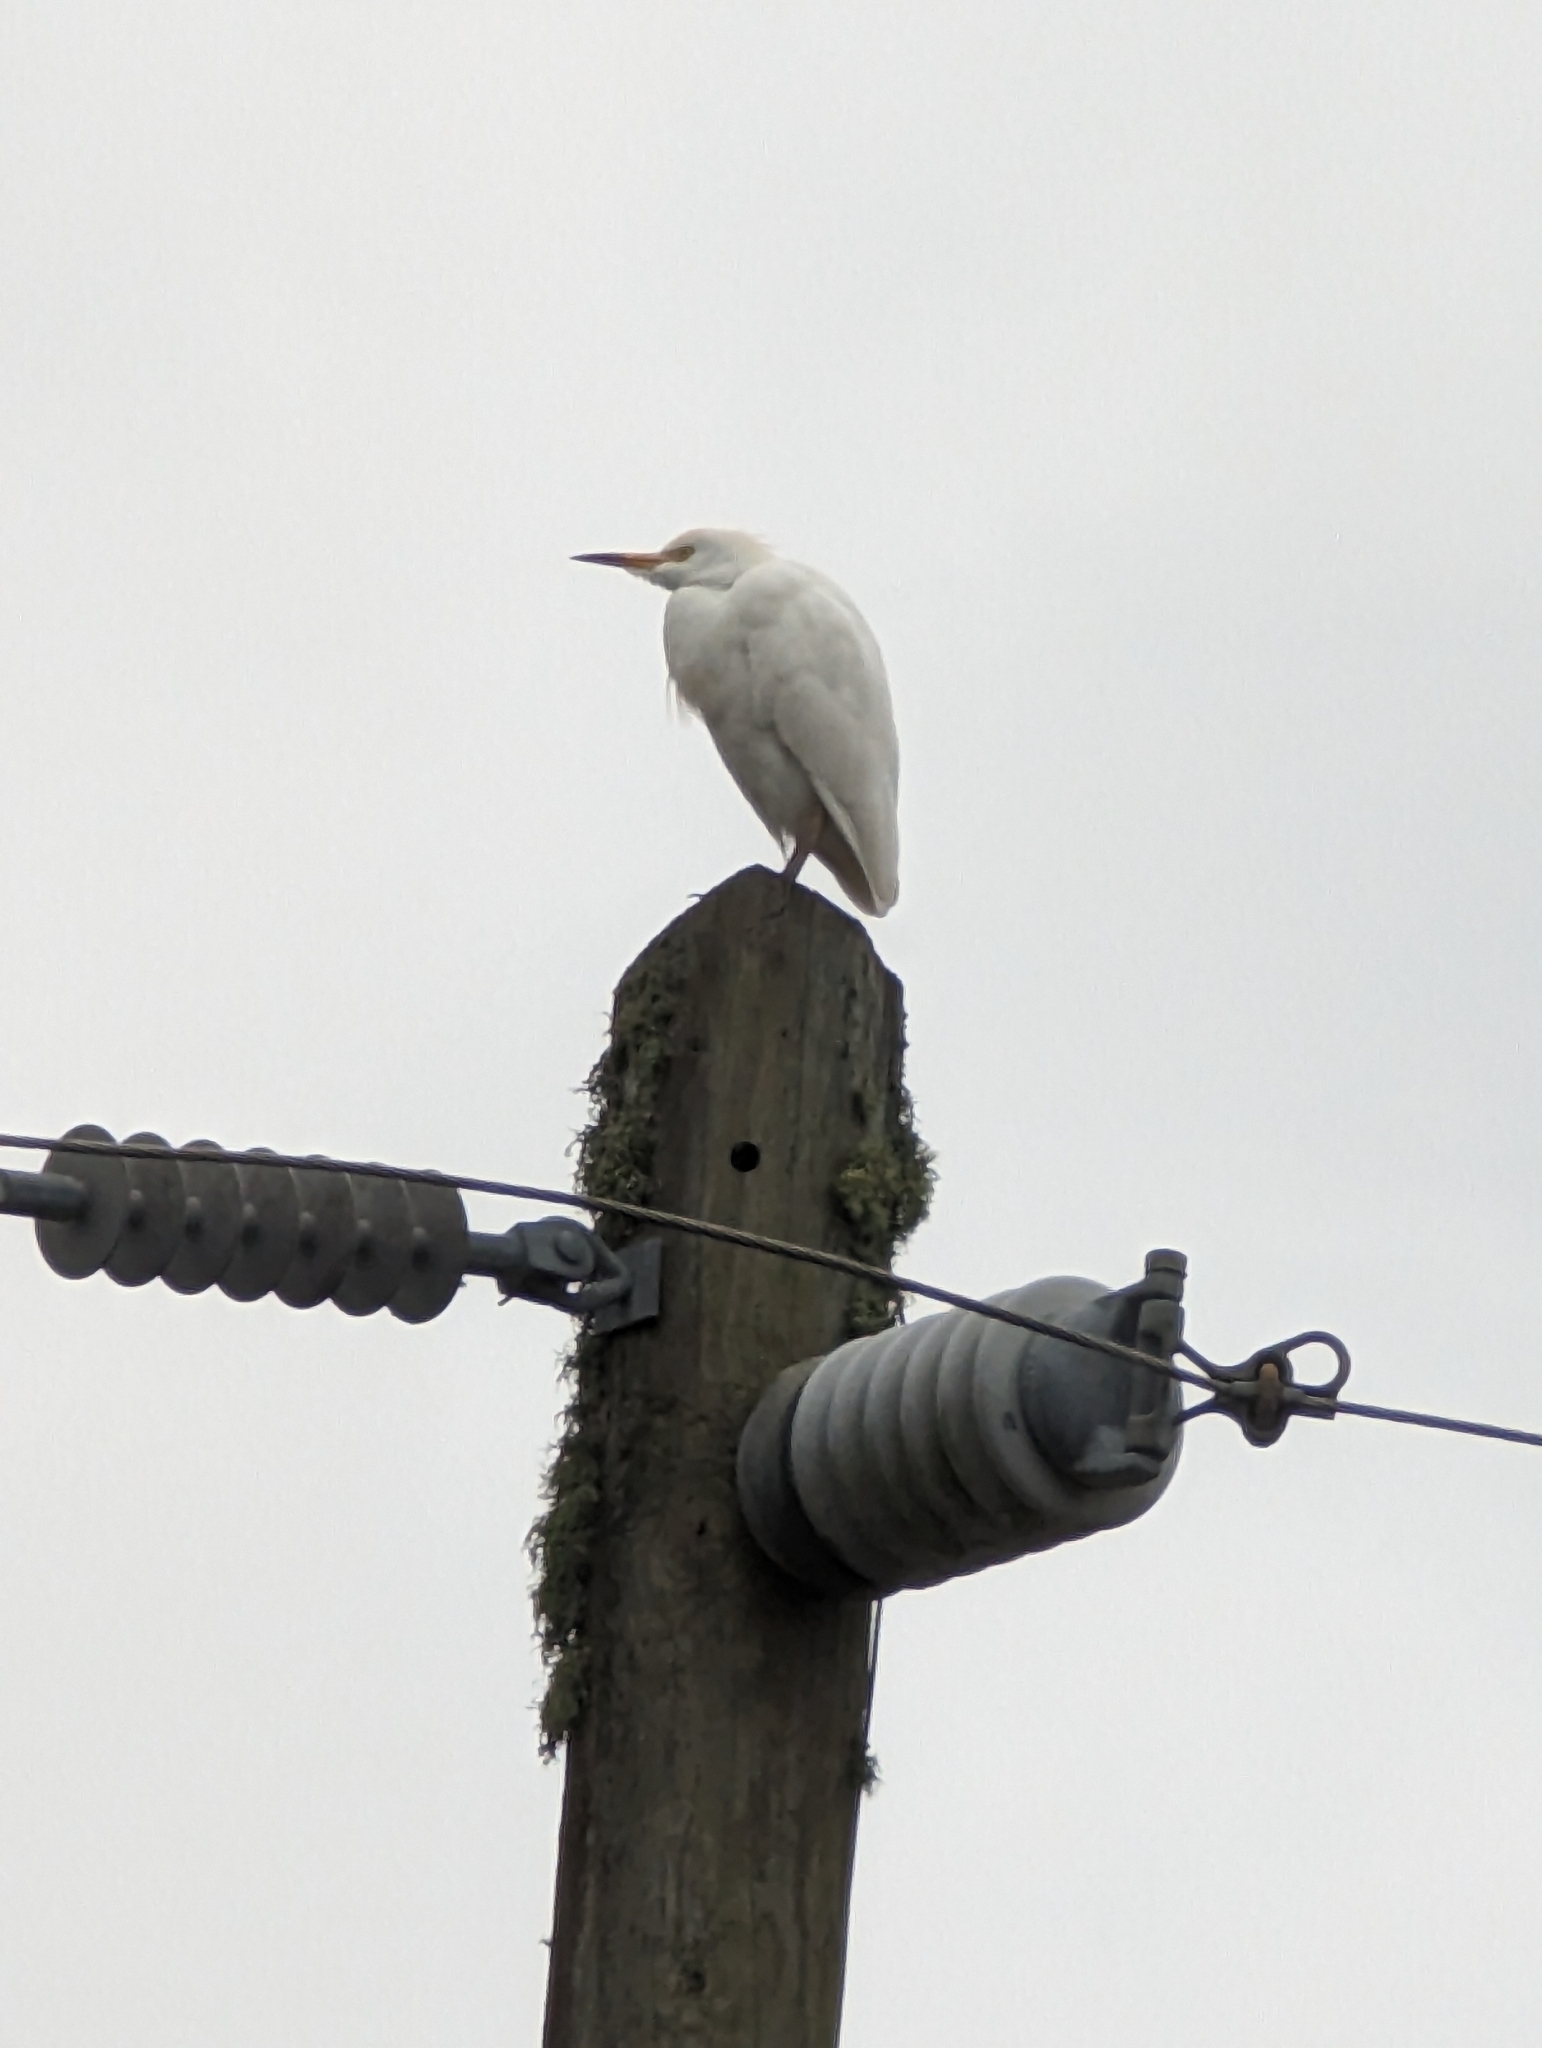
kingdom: Animalia
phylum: Chordata
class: Aves
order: Pelecaniformes
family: Ardeidae
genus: Bubulcus
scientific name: Bubulcus ibis
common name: Cattle egret
